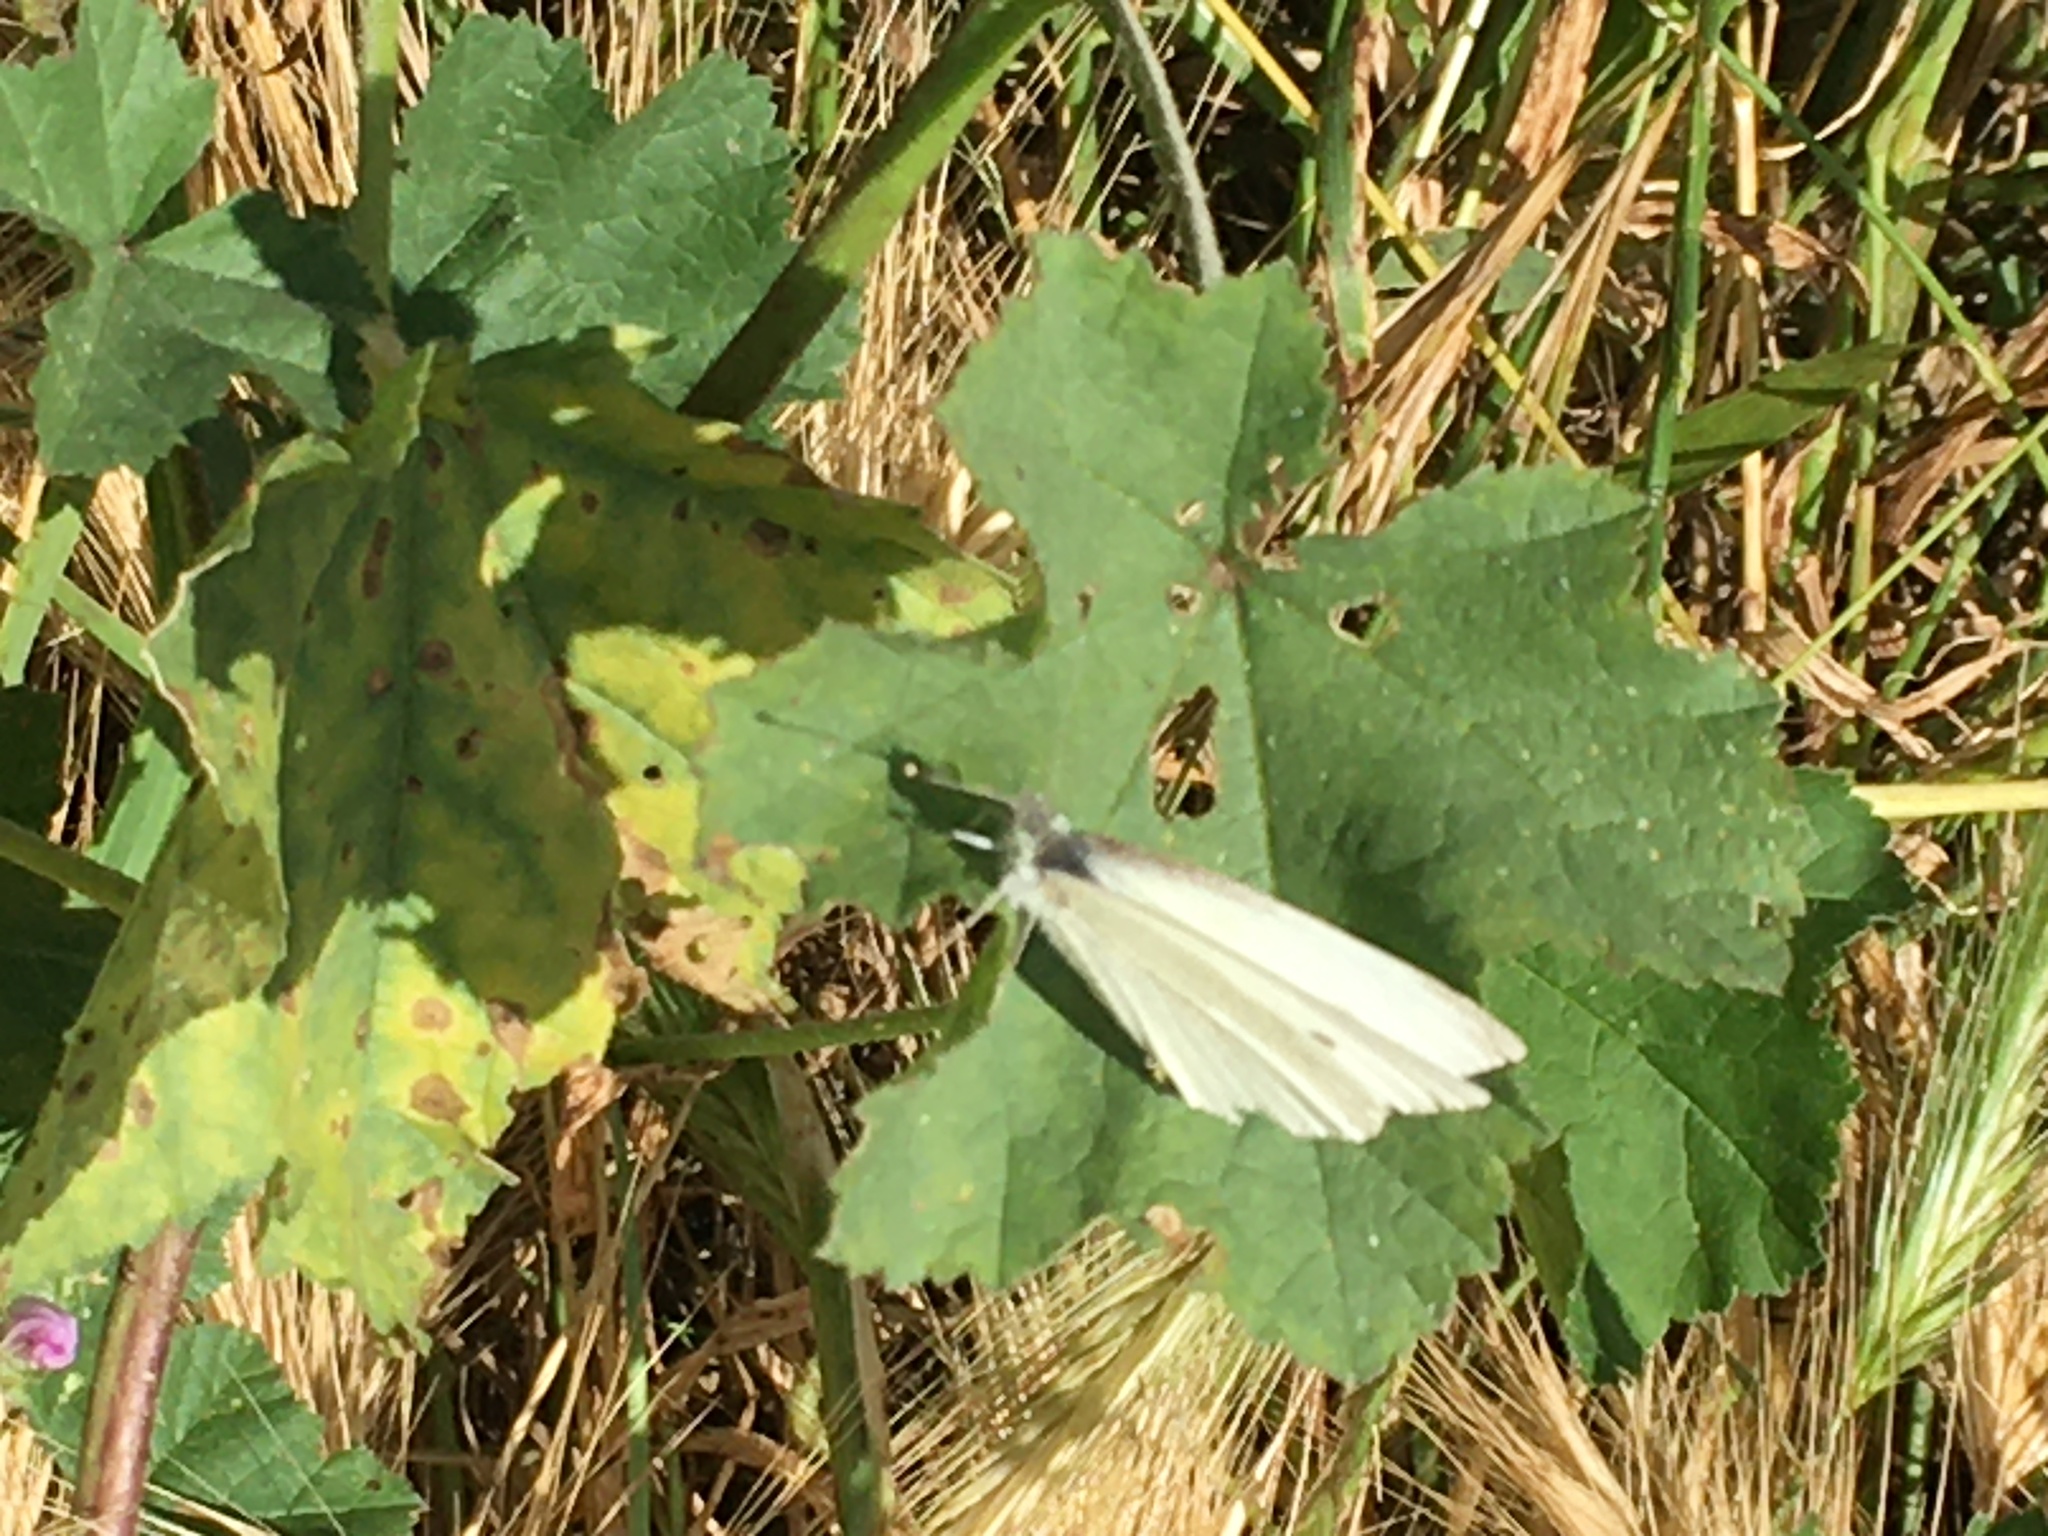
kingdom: Animalia
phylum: Arthropoda
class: Insecta
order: Lepidoptera
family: Pieridae
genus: Pieris
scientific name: Pieris rapae
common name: Small white
